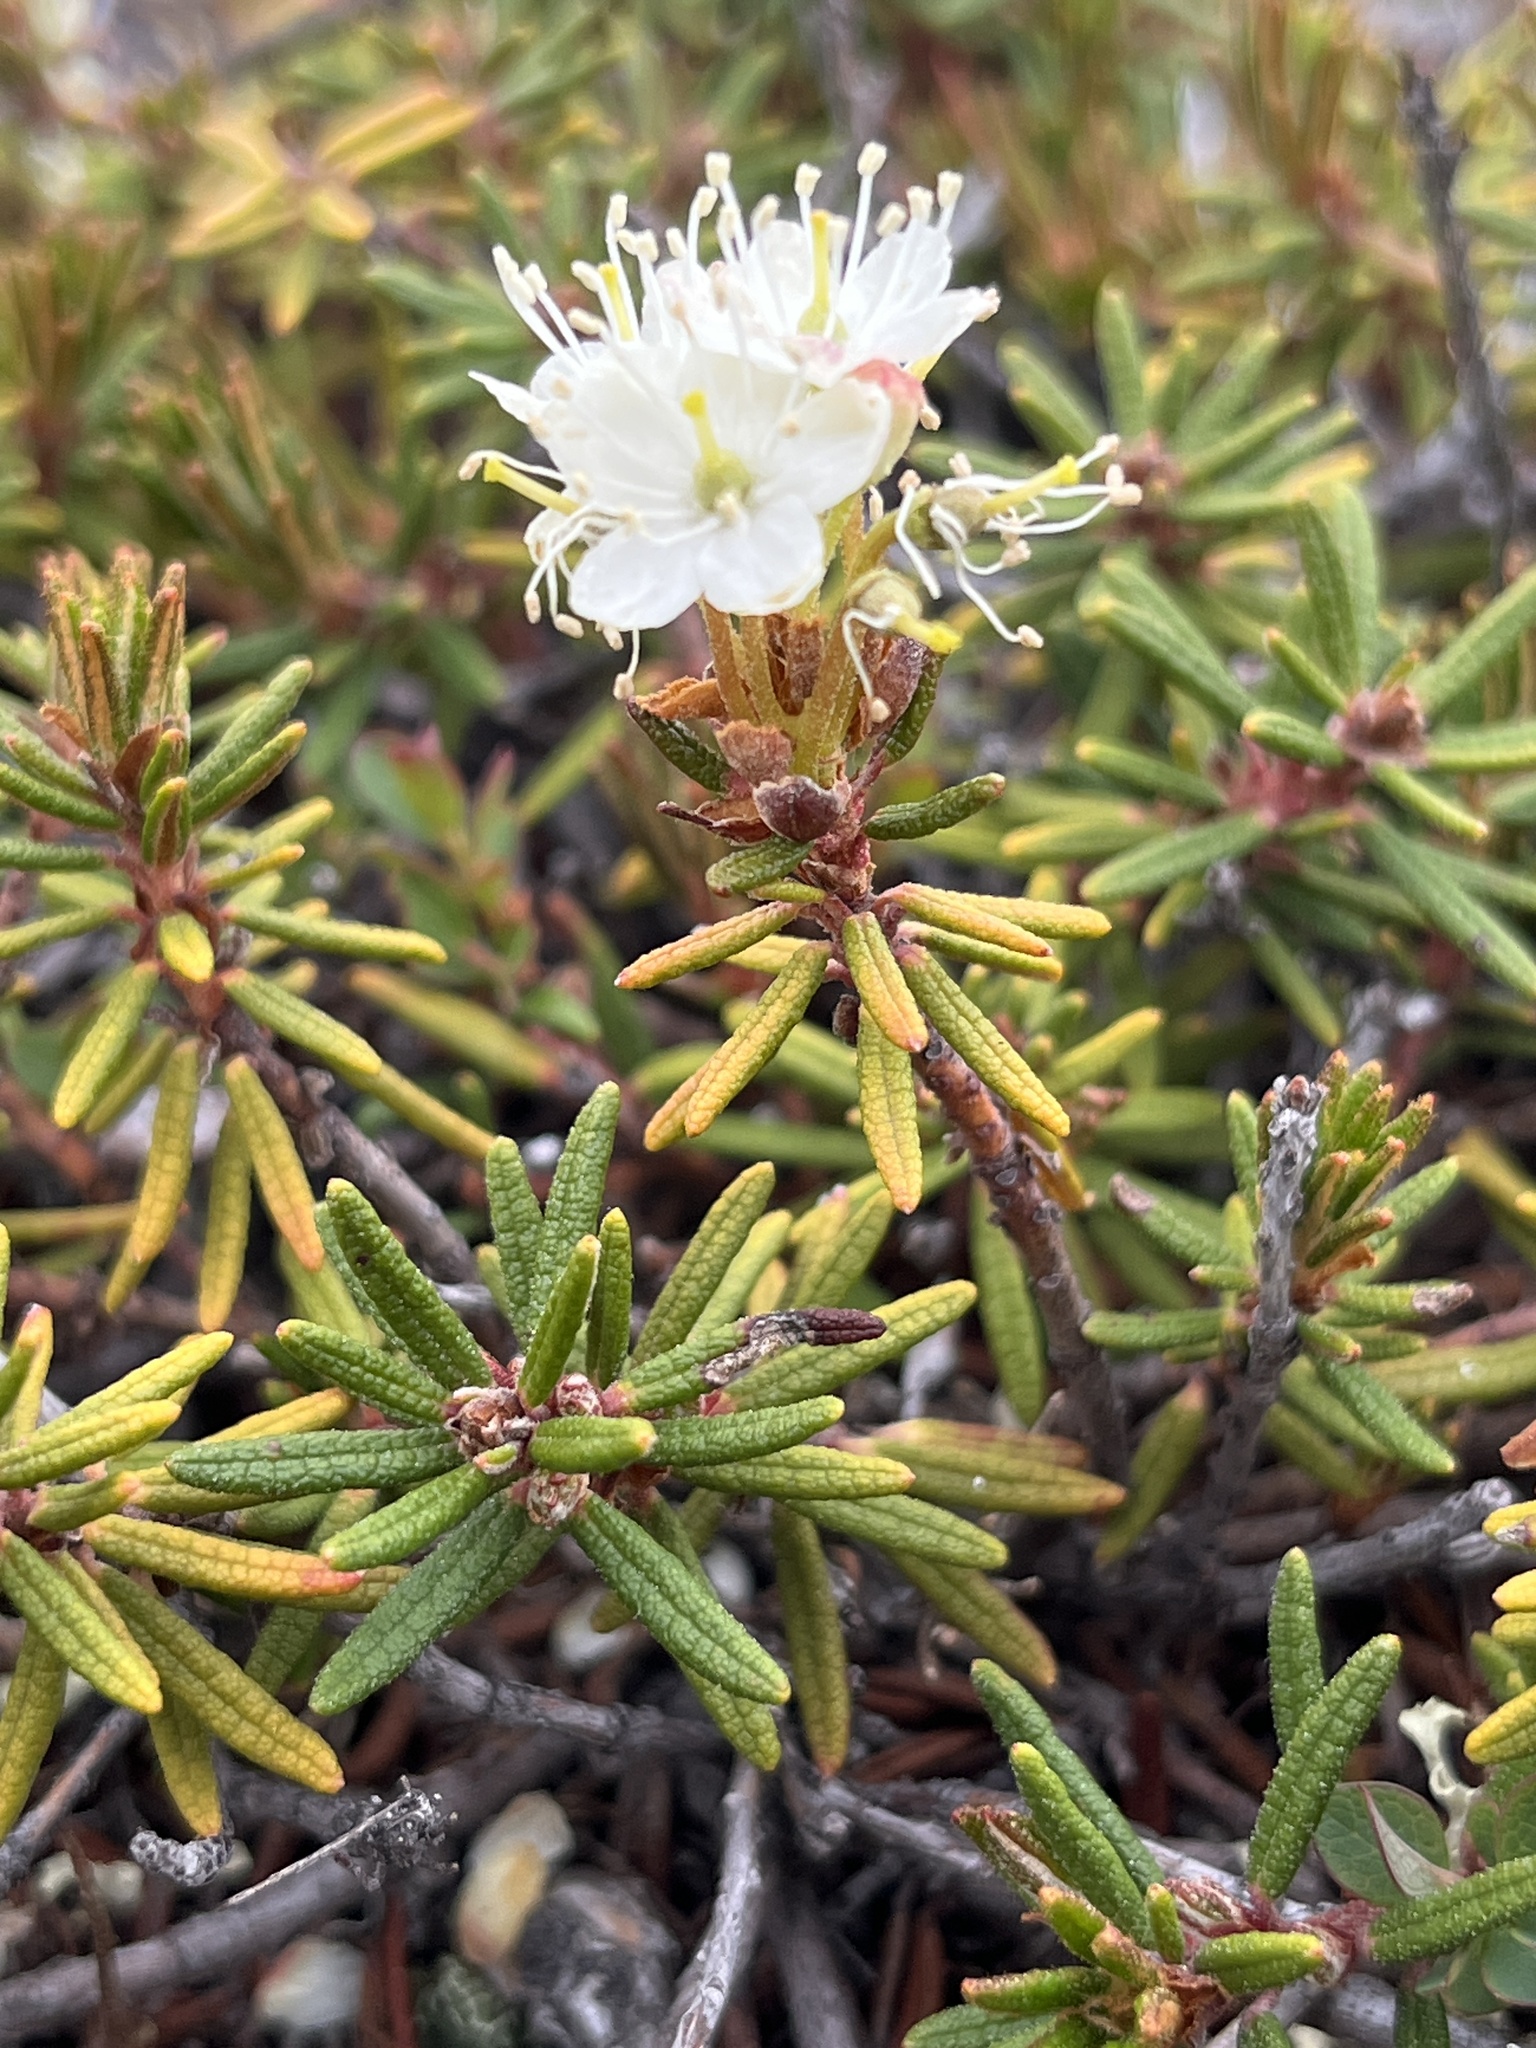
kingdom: Plantae
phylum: Tracheophyta
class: Magnoliopsida
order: Ericales
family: Ericaceae
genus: Rhododendron
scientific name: Rhododendron tomentosum
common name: Marsh labrador tea
